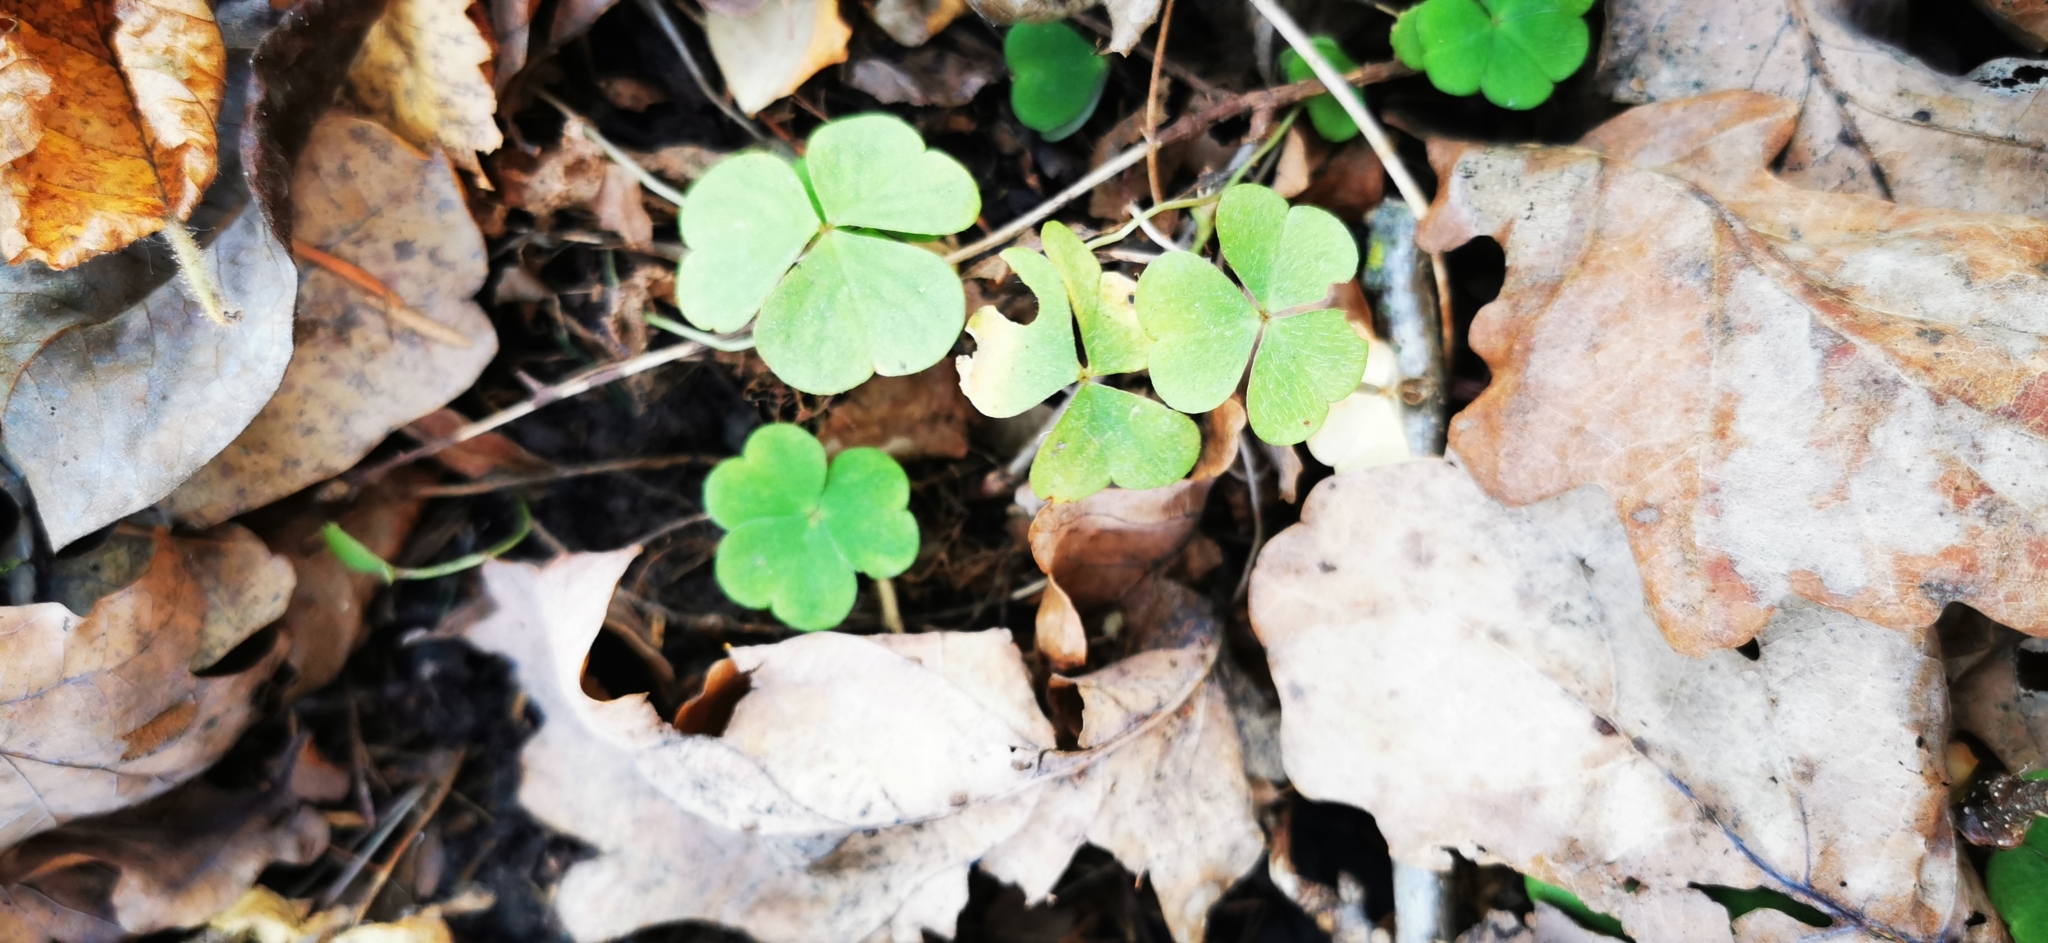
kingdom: Plantae
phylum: Tracheophyta
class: Magnoliopsida
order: Oxalidales
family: Oxalidaceae
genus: Oxalis
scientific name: Oxalis acetosella
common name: Wood-sorrel
